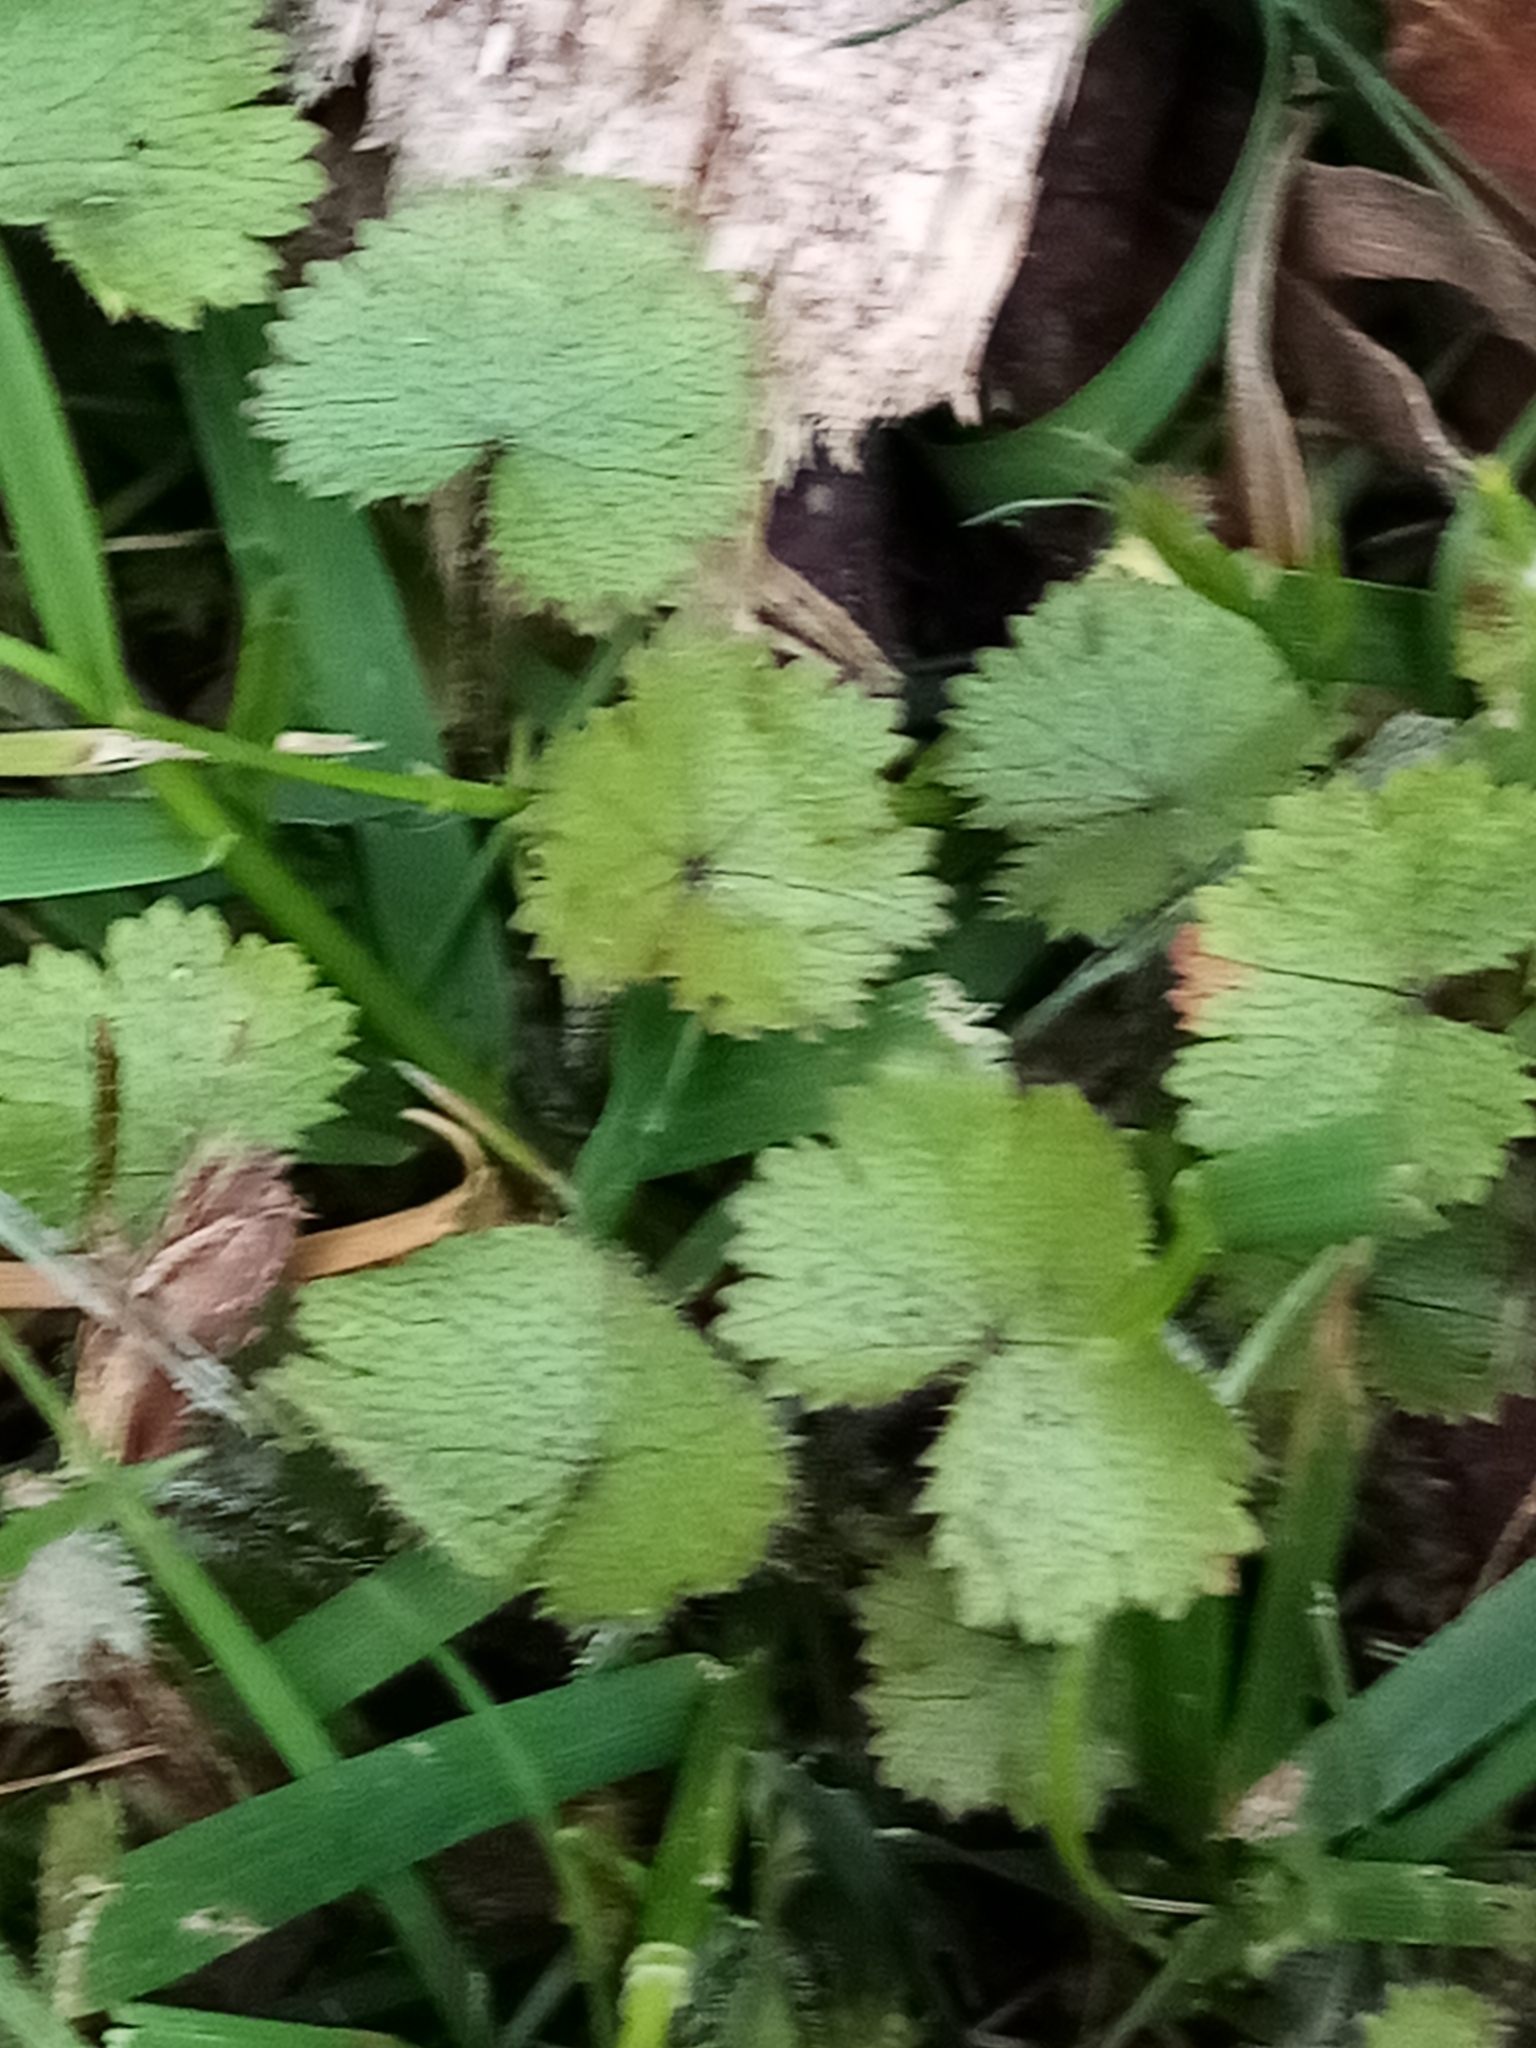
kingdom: Plantae
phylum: Tracheophyta
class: Magnoliopsida
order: Apiales
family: Araliaceae
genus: Hydrocotyle
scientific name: Hydrocotyle moschata
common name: Hairy pennywort
